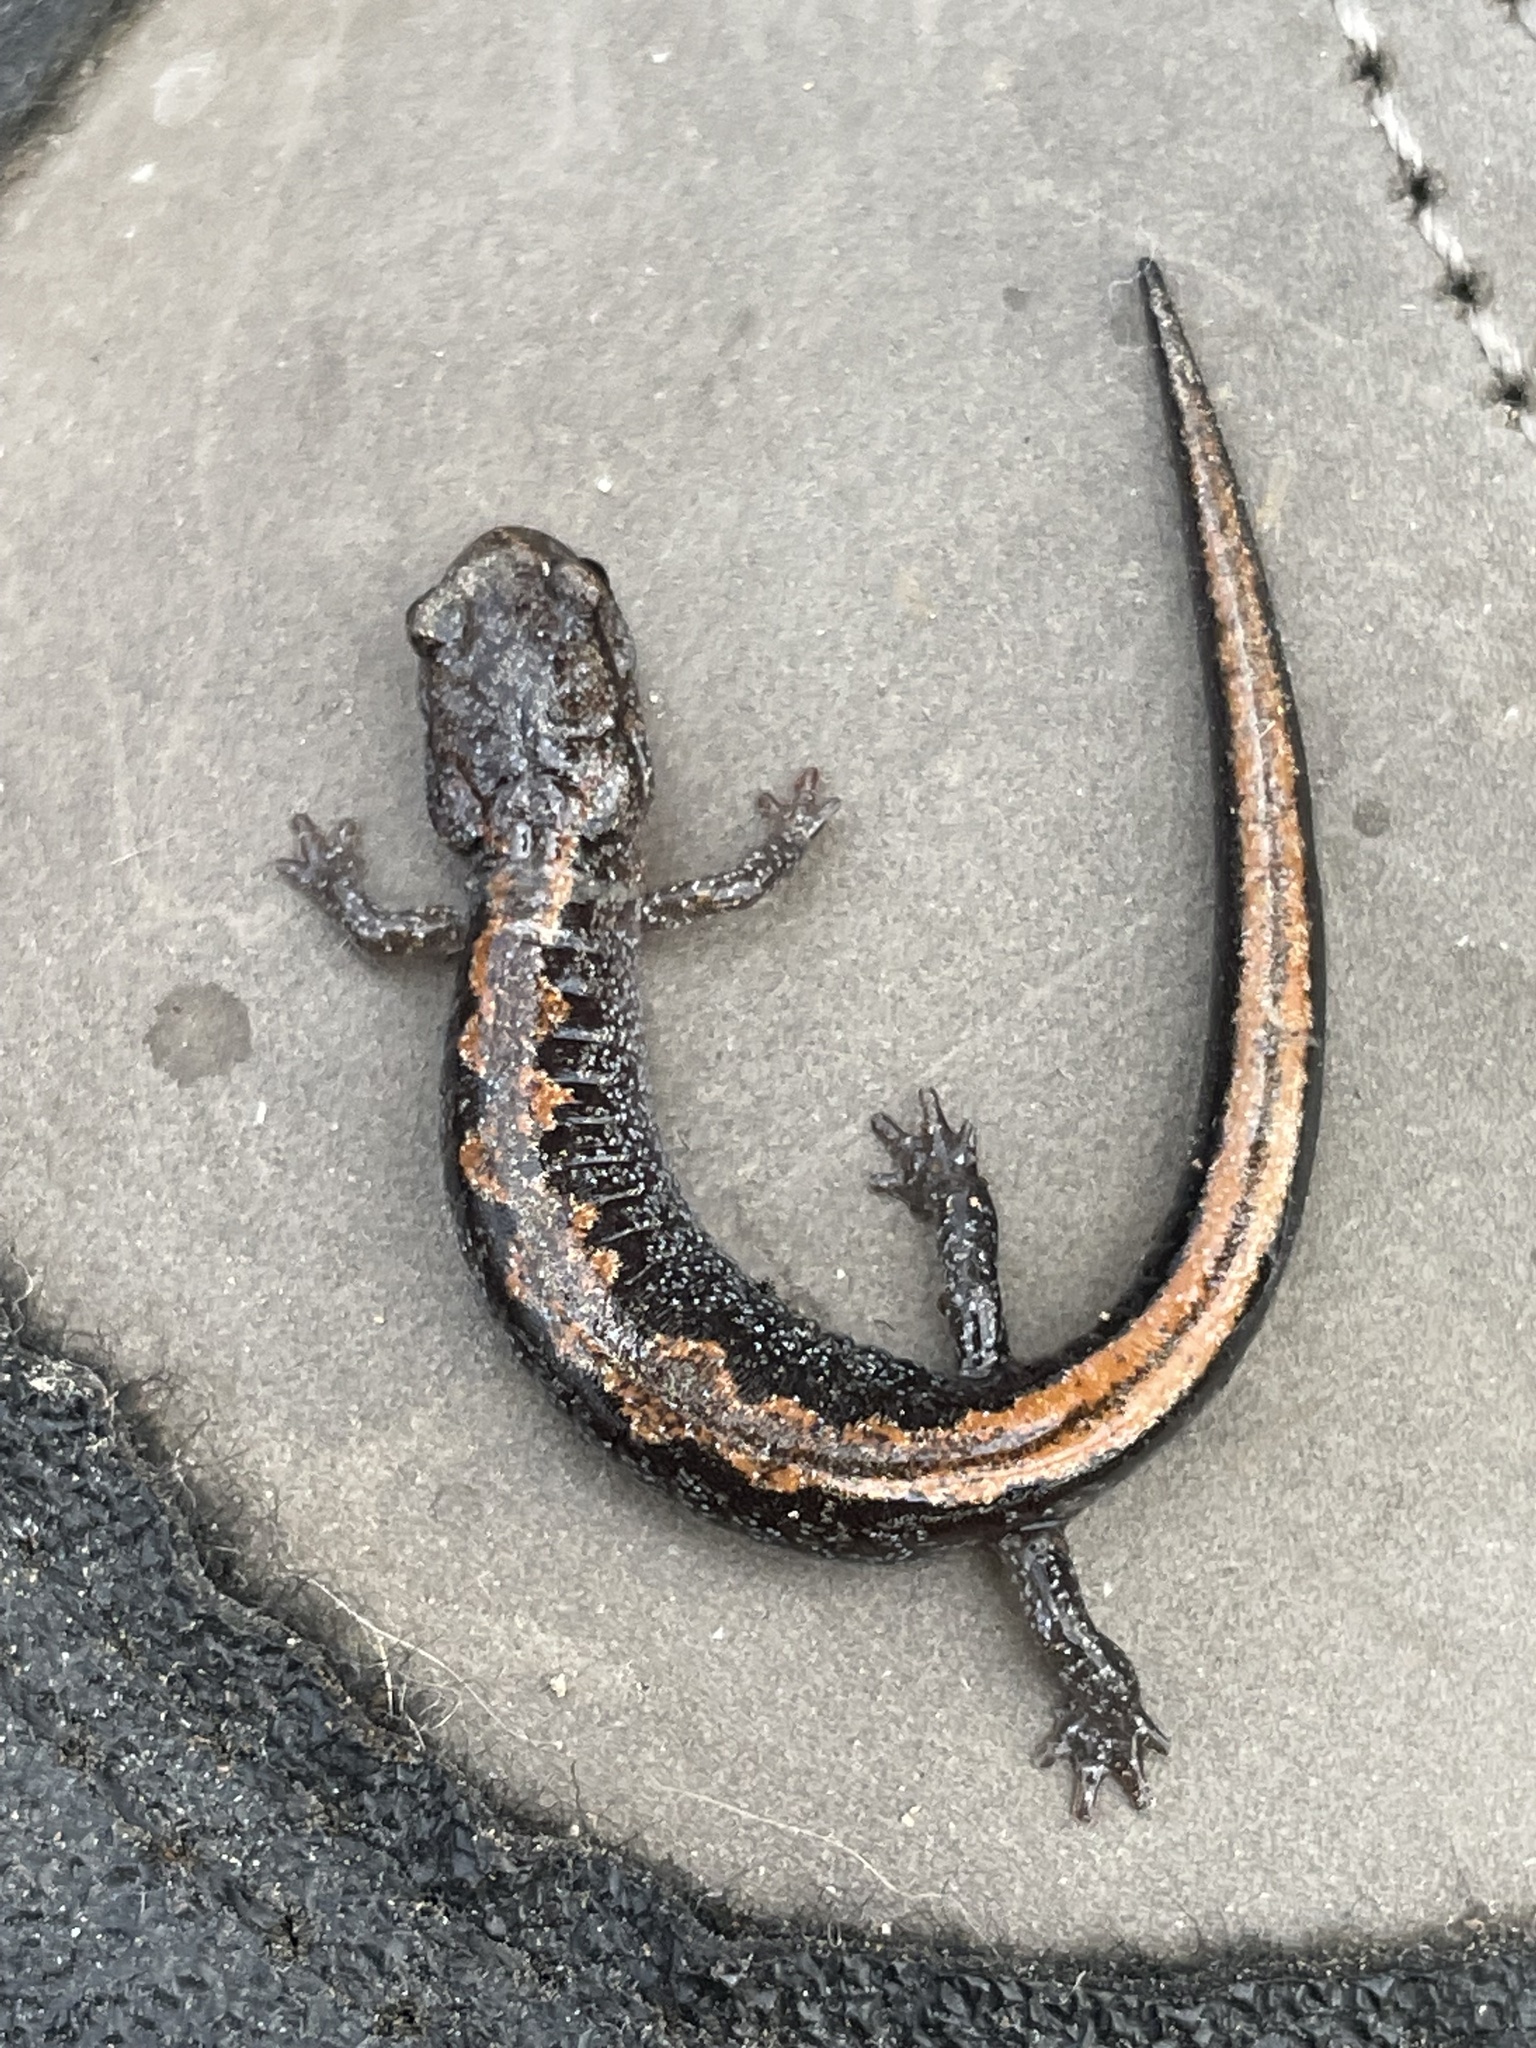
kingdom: Animalia
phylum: Chordata
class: Amphibia
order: Caudata
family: Plethodontidae
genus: Plethodon
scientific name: Plethodon dorsalis
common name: Northern zigzag salamander
